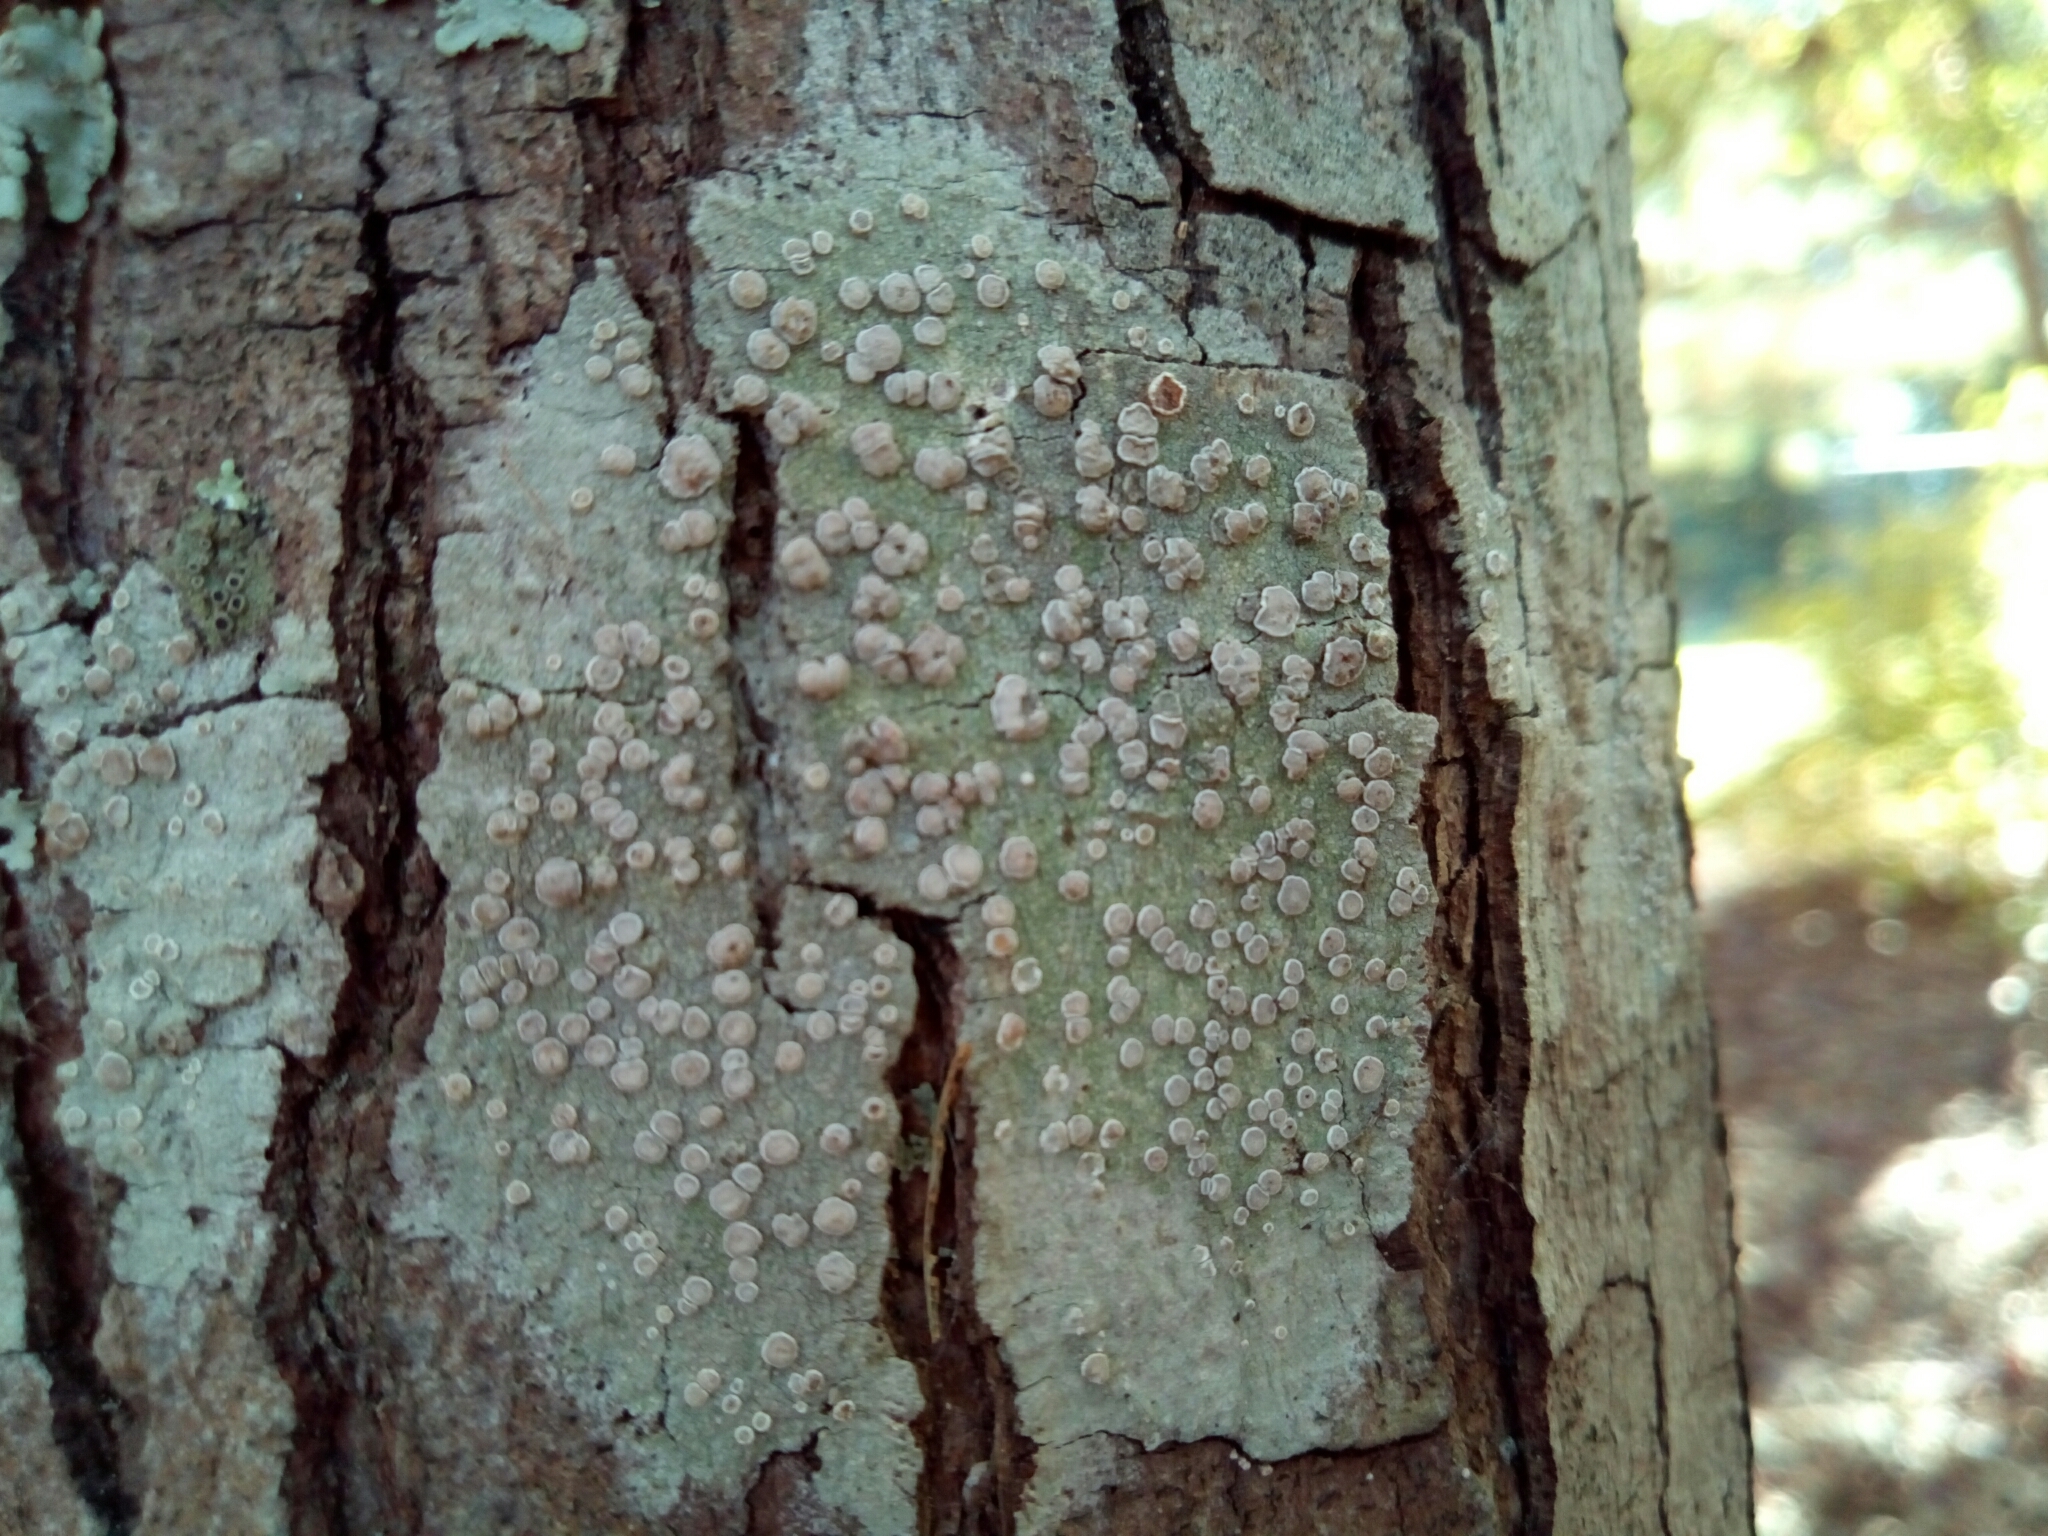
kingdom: Fungi
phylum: Ascomycota
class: Lecanoromycetes
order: Lecanorales
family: Lecanoraceae
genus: Lecanora
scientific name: Lecanora caesiorubella
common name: Frosted rim-lichen
